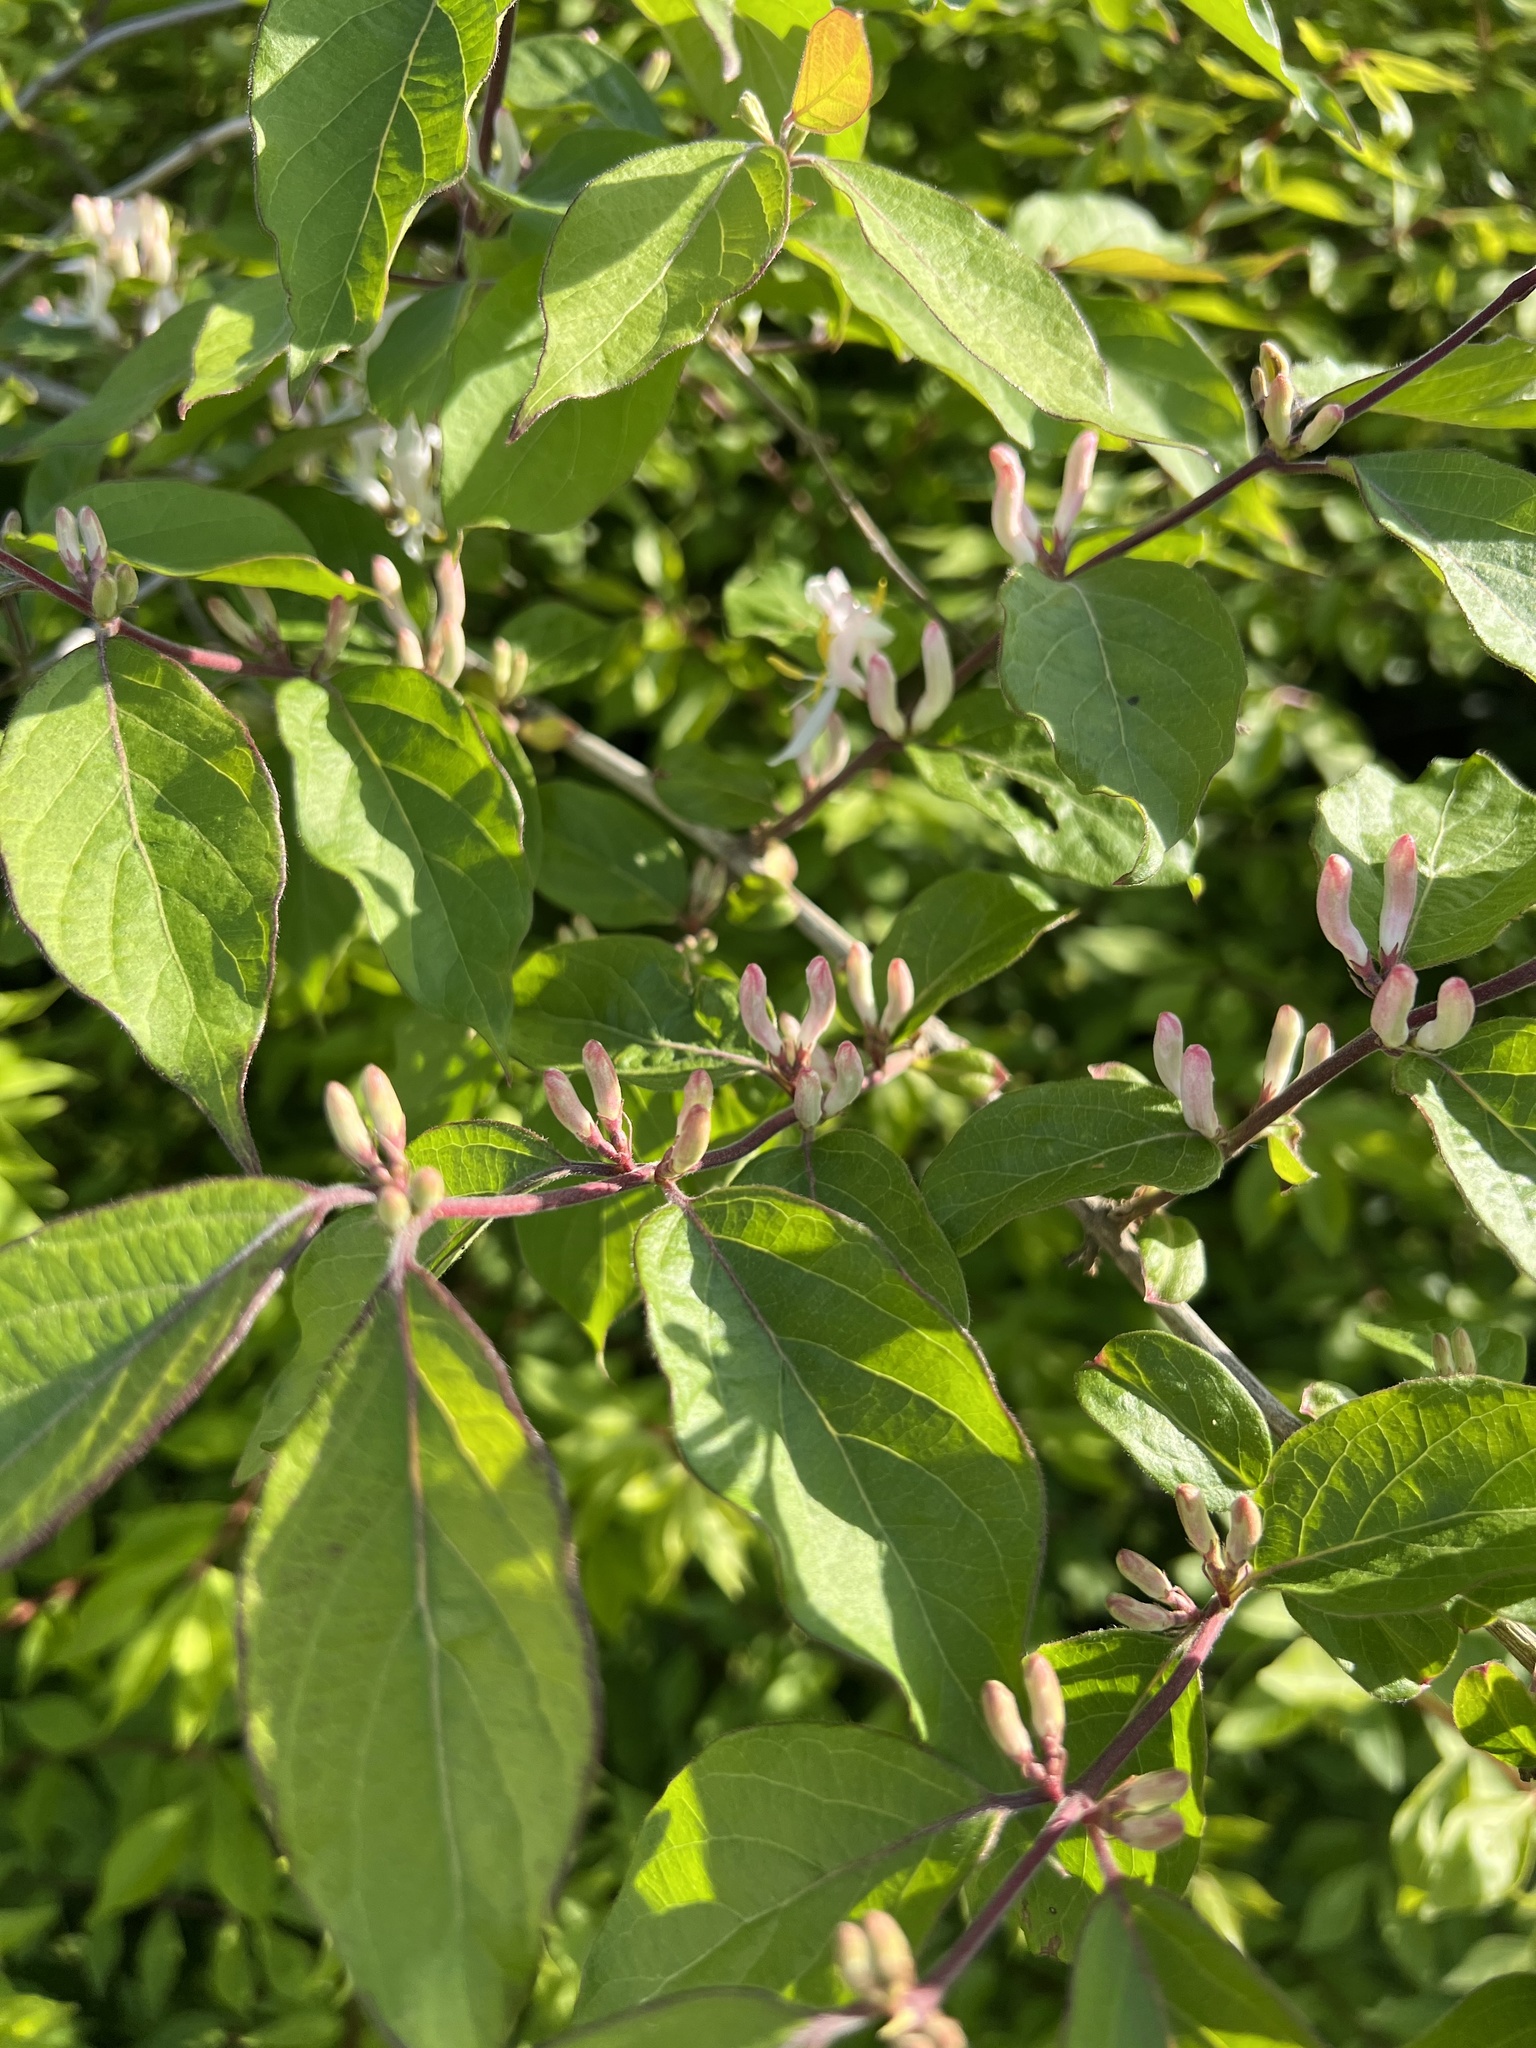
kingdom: Plantae
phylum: Tracheophyta
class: Magnoliopsida
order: Dipsacales
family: Caprifoliaceae
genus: Lonicera
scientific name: Lonicera maackii
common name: Amur honeysuckle
